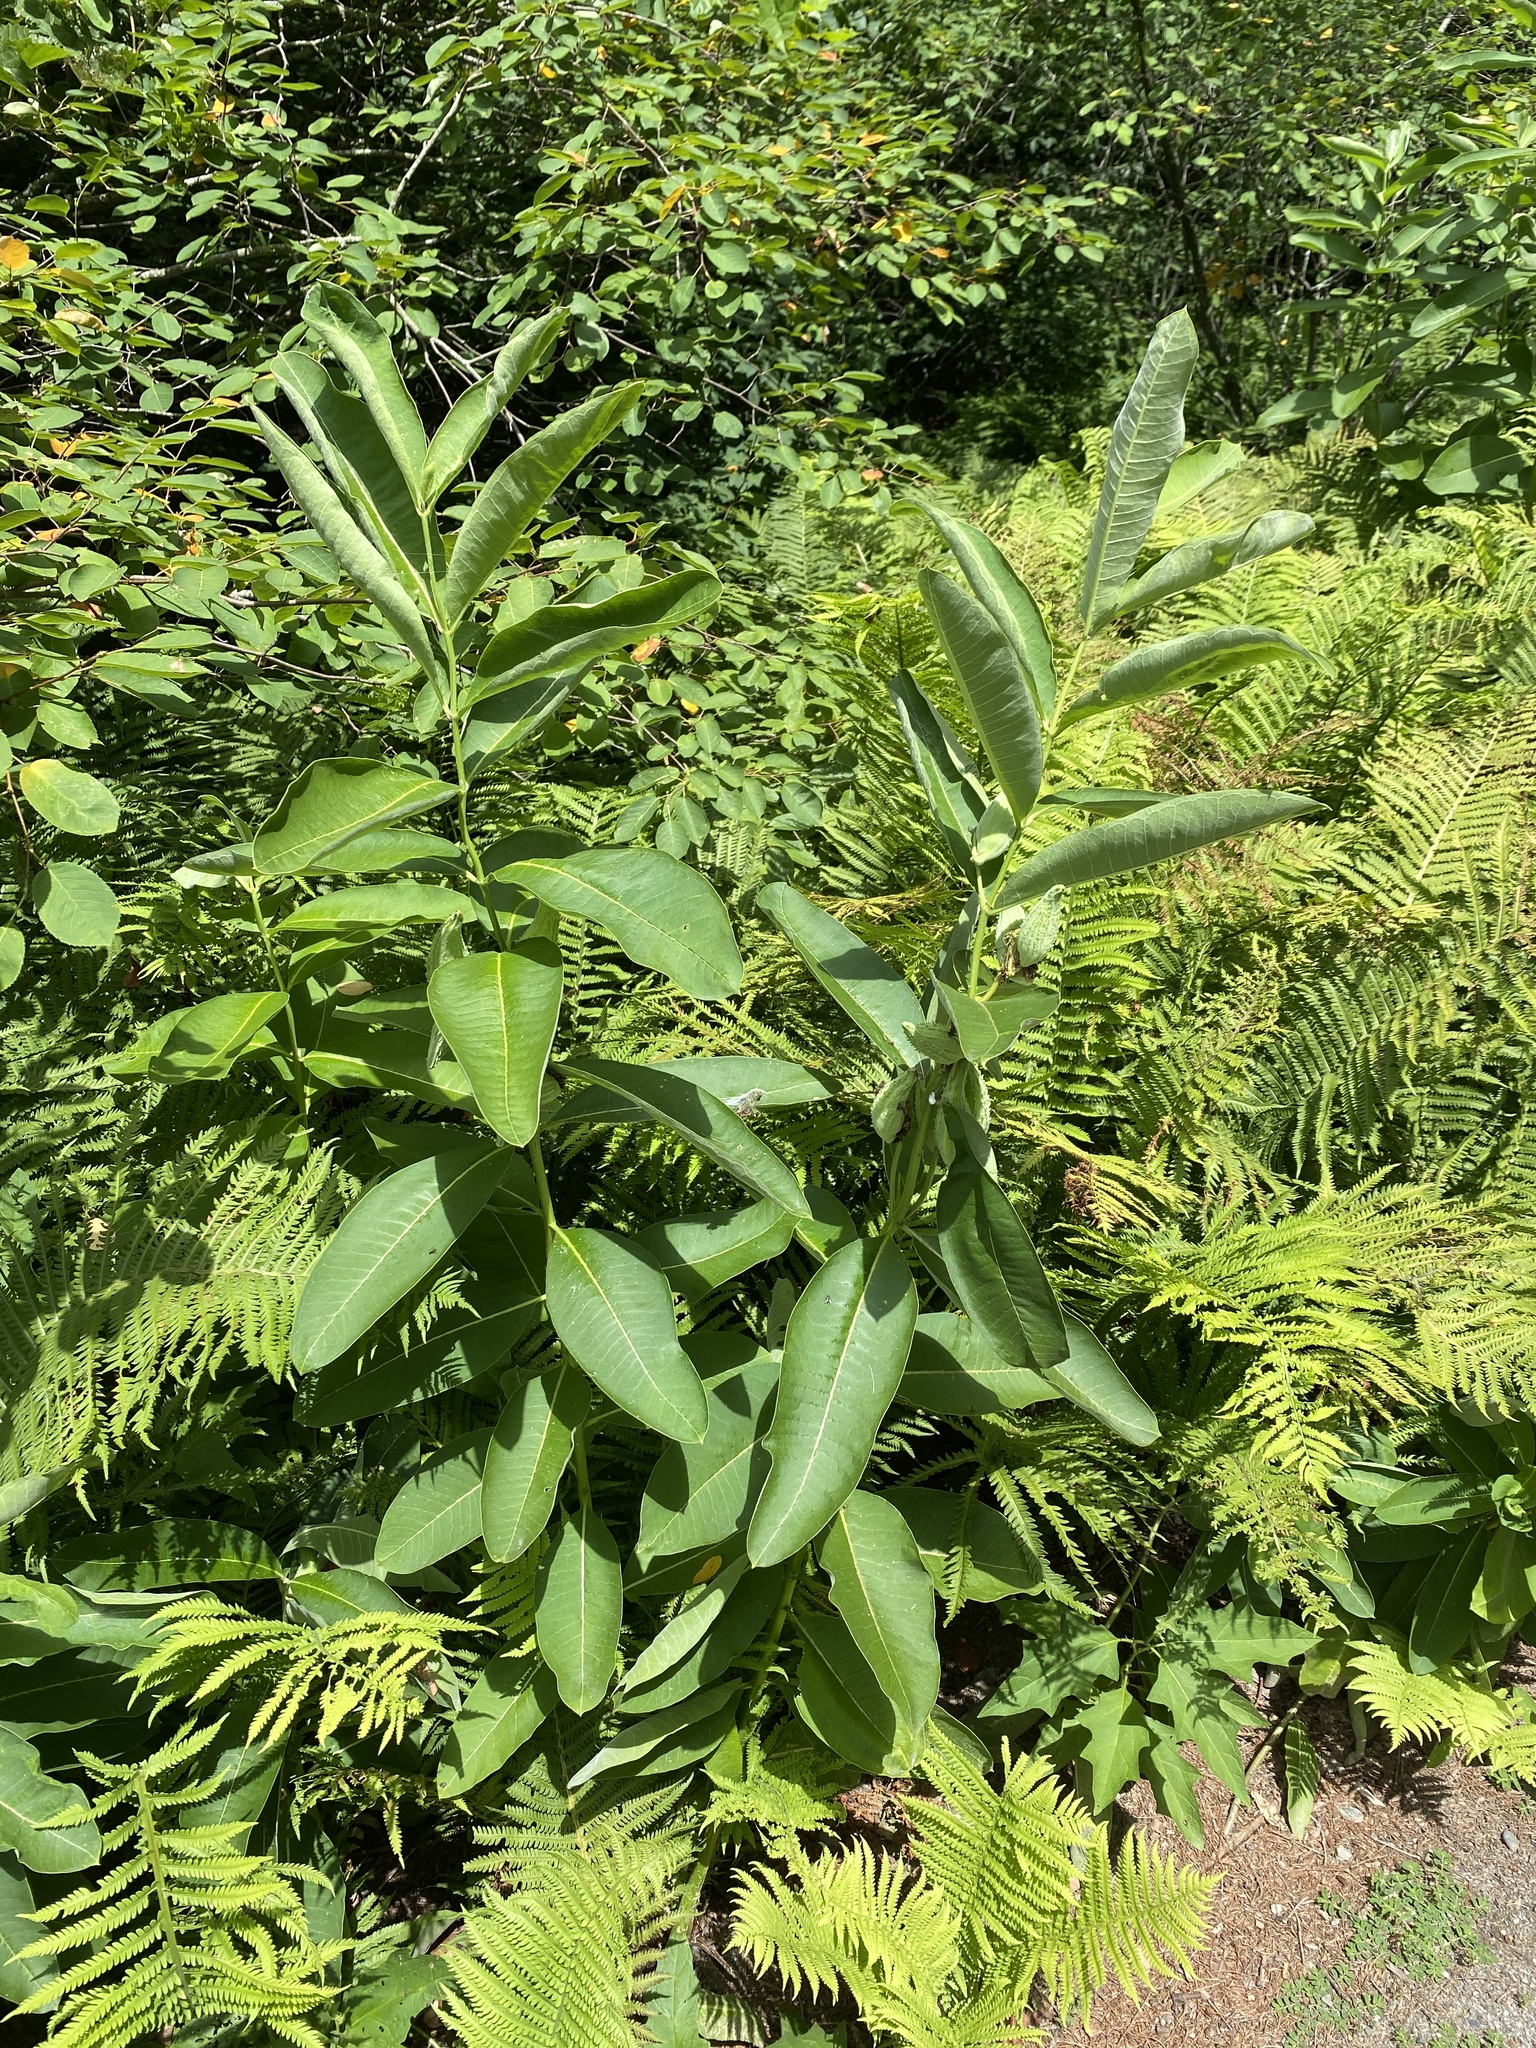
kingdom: Plantae
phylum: Tracheophyta
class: Magnoliopsida
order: Gentianales
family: Apocynaceae
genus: Asclepias
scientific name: Asclepias syriaca
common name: Common milkweed
